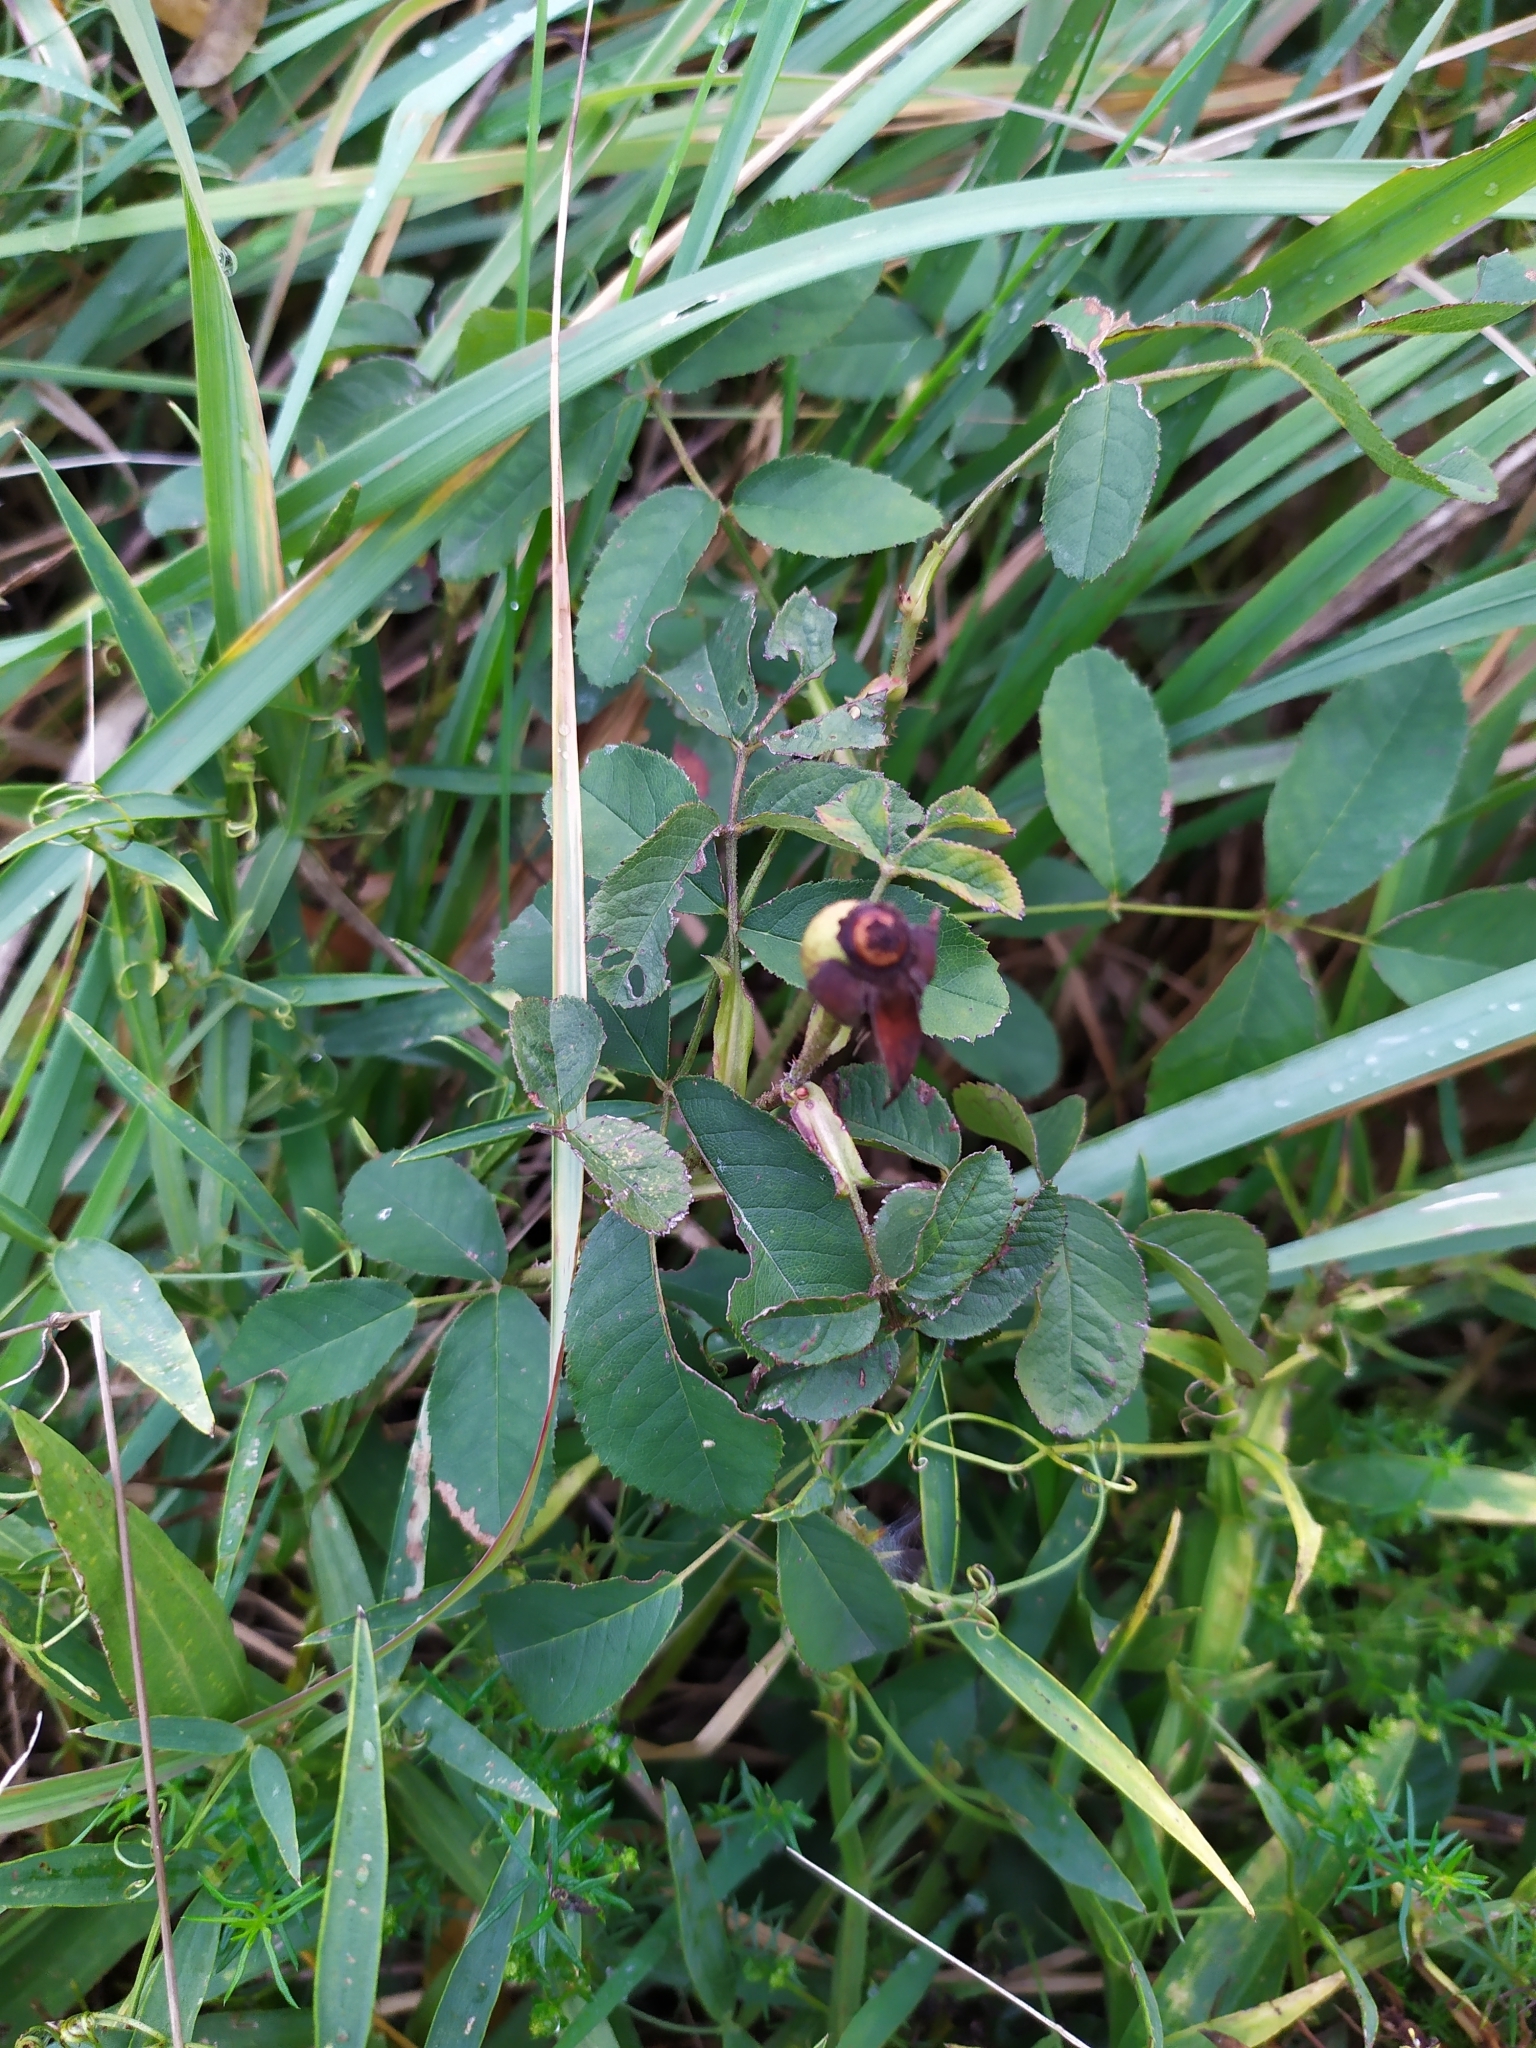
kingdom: Plantae
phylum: Tracheophyta
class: Magnoliopsida
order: Rosales
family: Rosaceae
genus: Rosa
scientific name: Rosa gallica
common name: French rose
